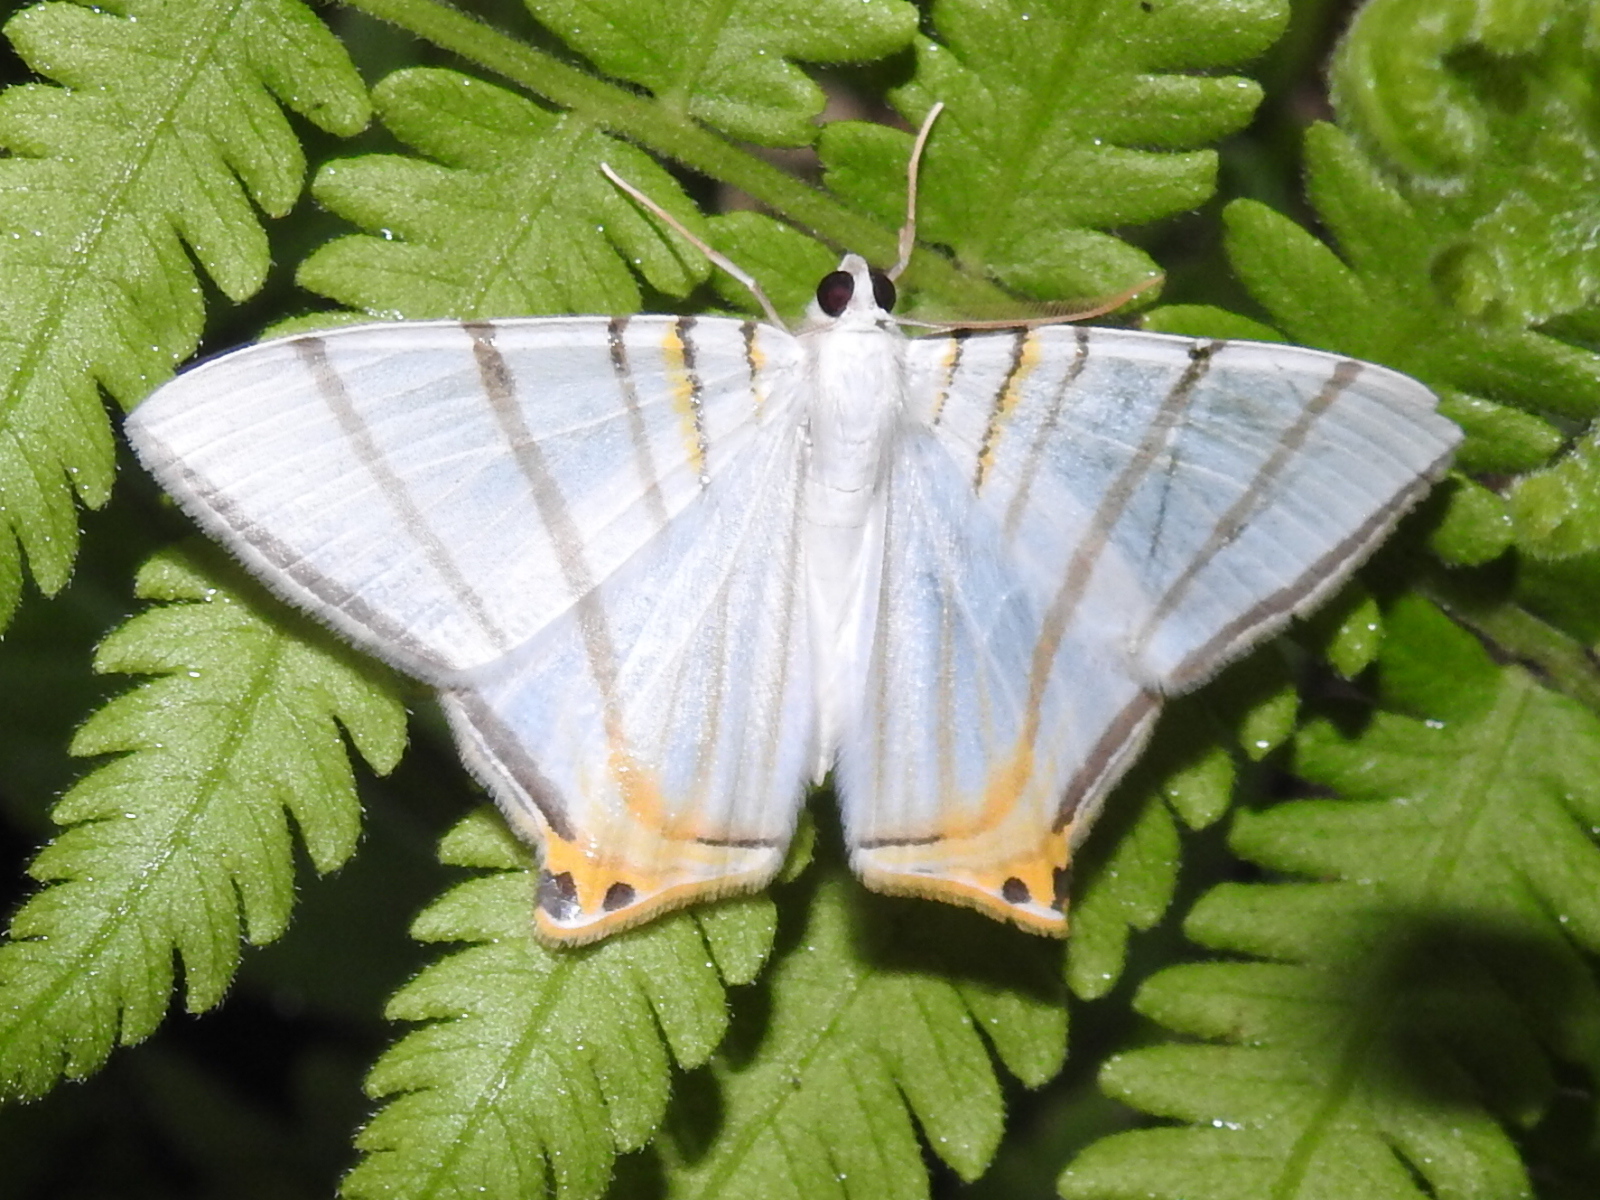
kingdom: Animalia
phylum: Arthropoda
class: Insecta
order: Lepidoptera
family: Geometridae
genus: Phrygionis
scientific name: Phrygionis platinata
